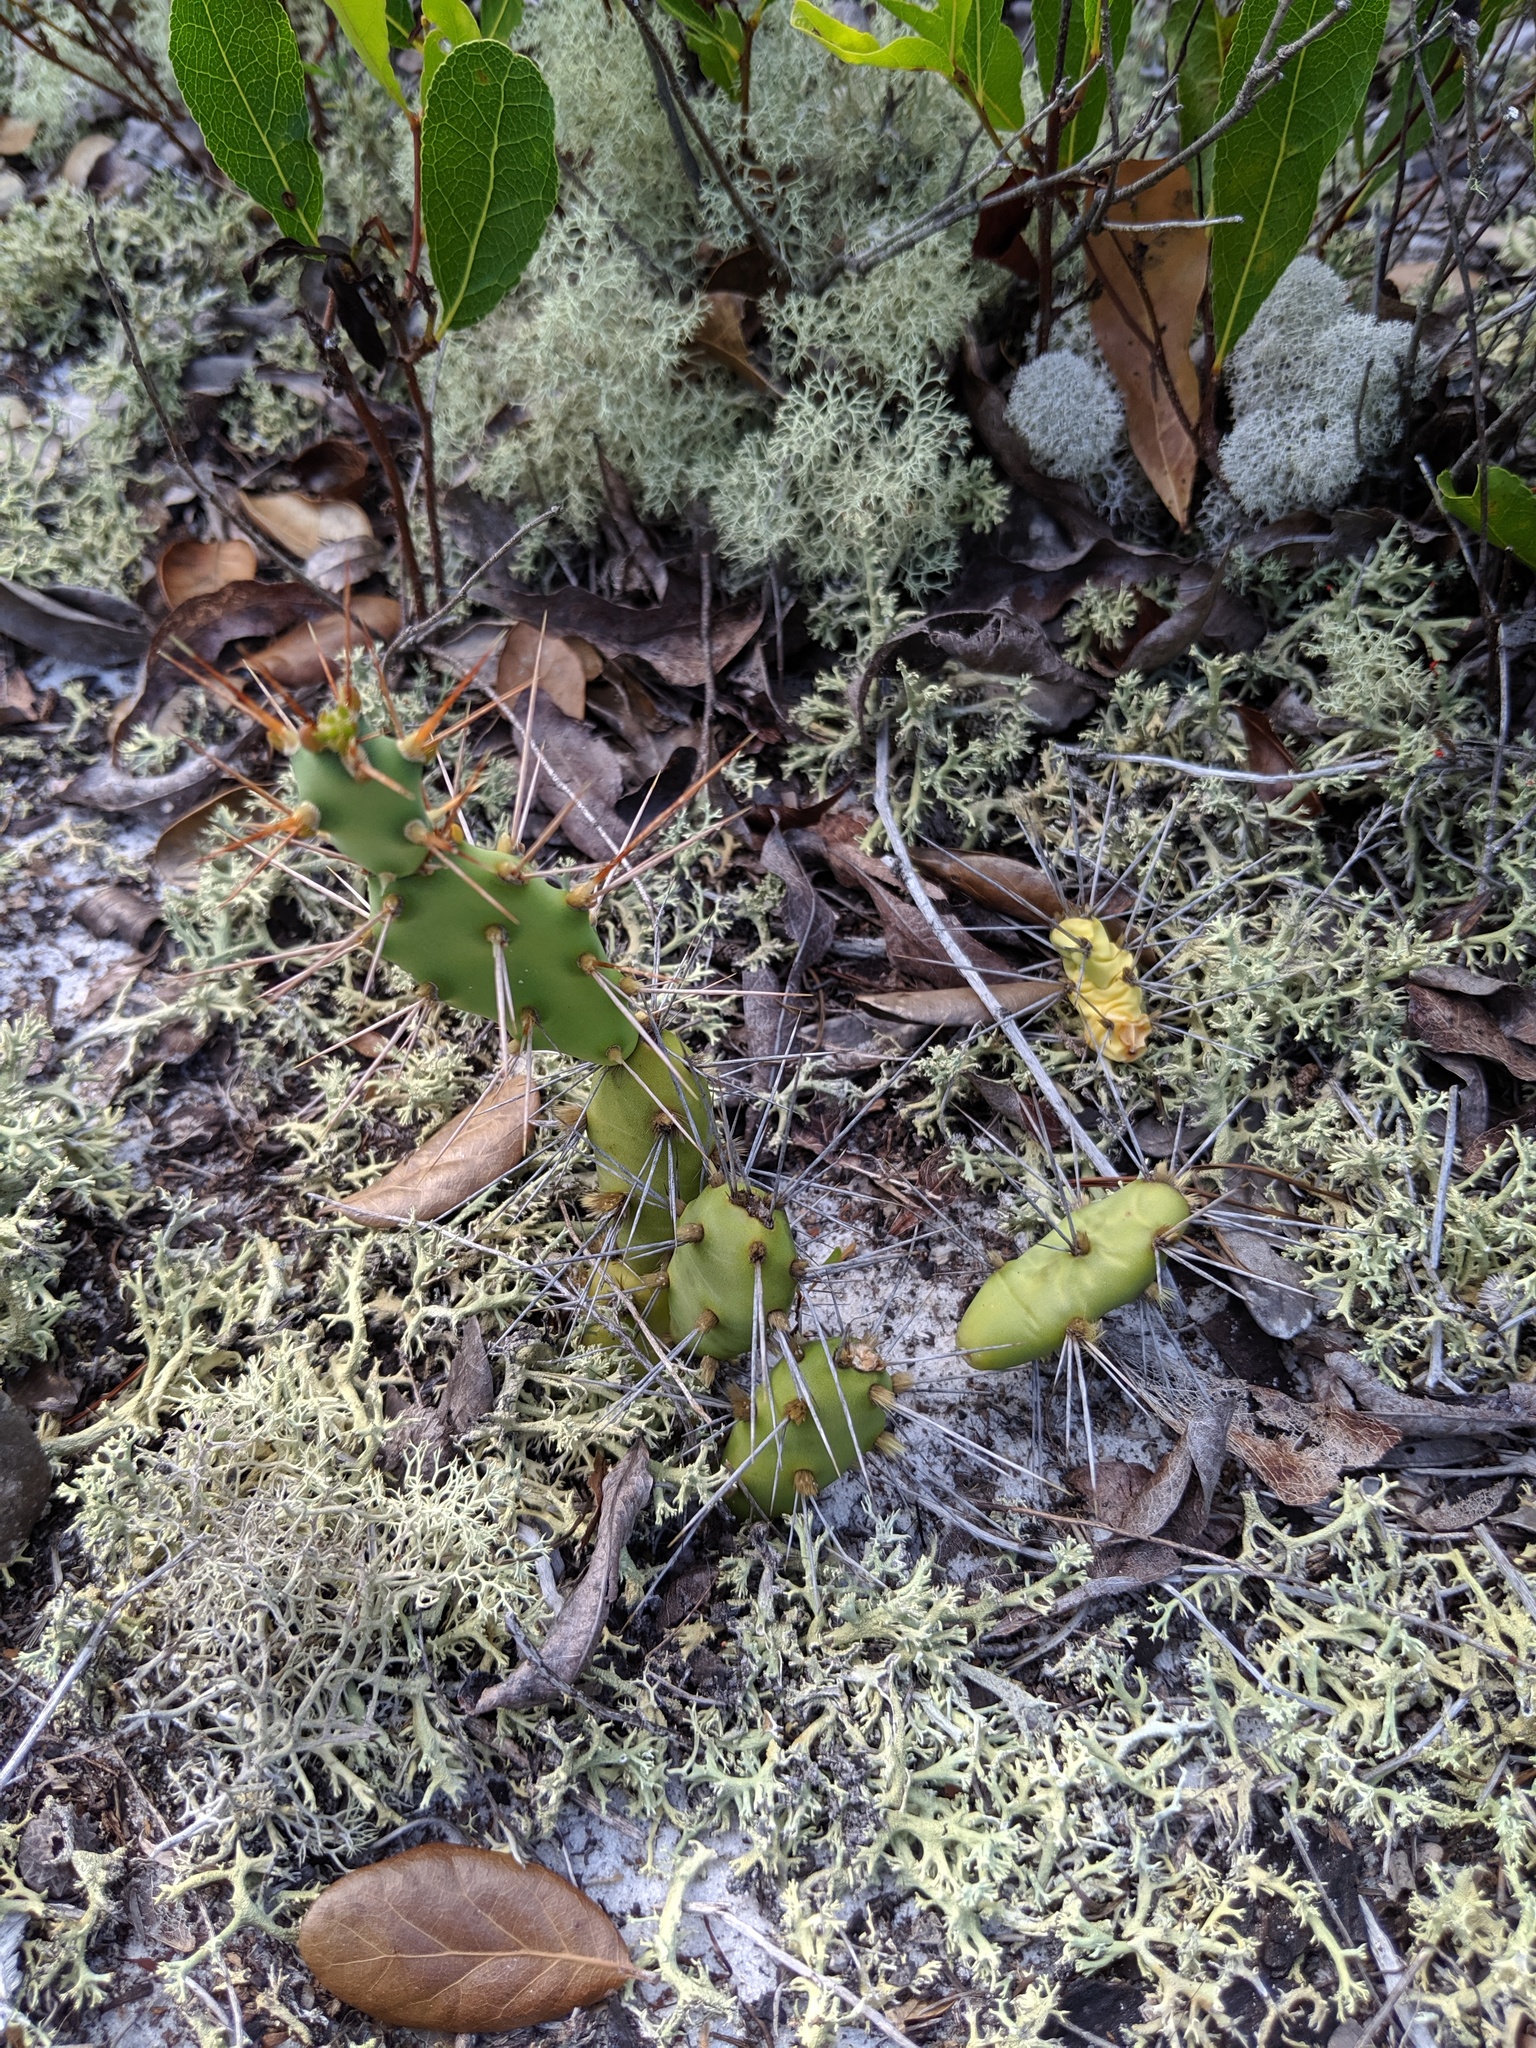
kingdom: Plantae
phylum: Tracheophyta
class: Magnoliopsida
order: Caryophyllales
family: Cactaceae
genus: Opuntia
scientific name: Opuntia drummondii
